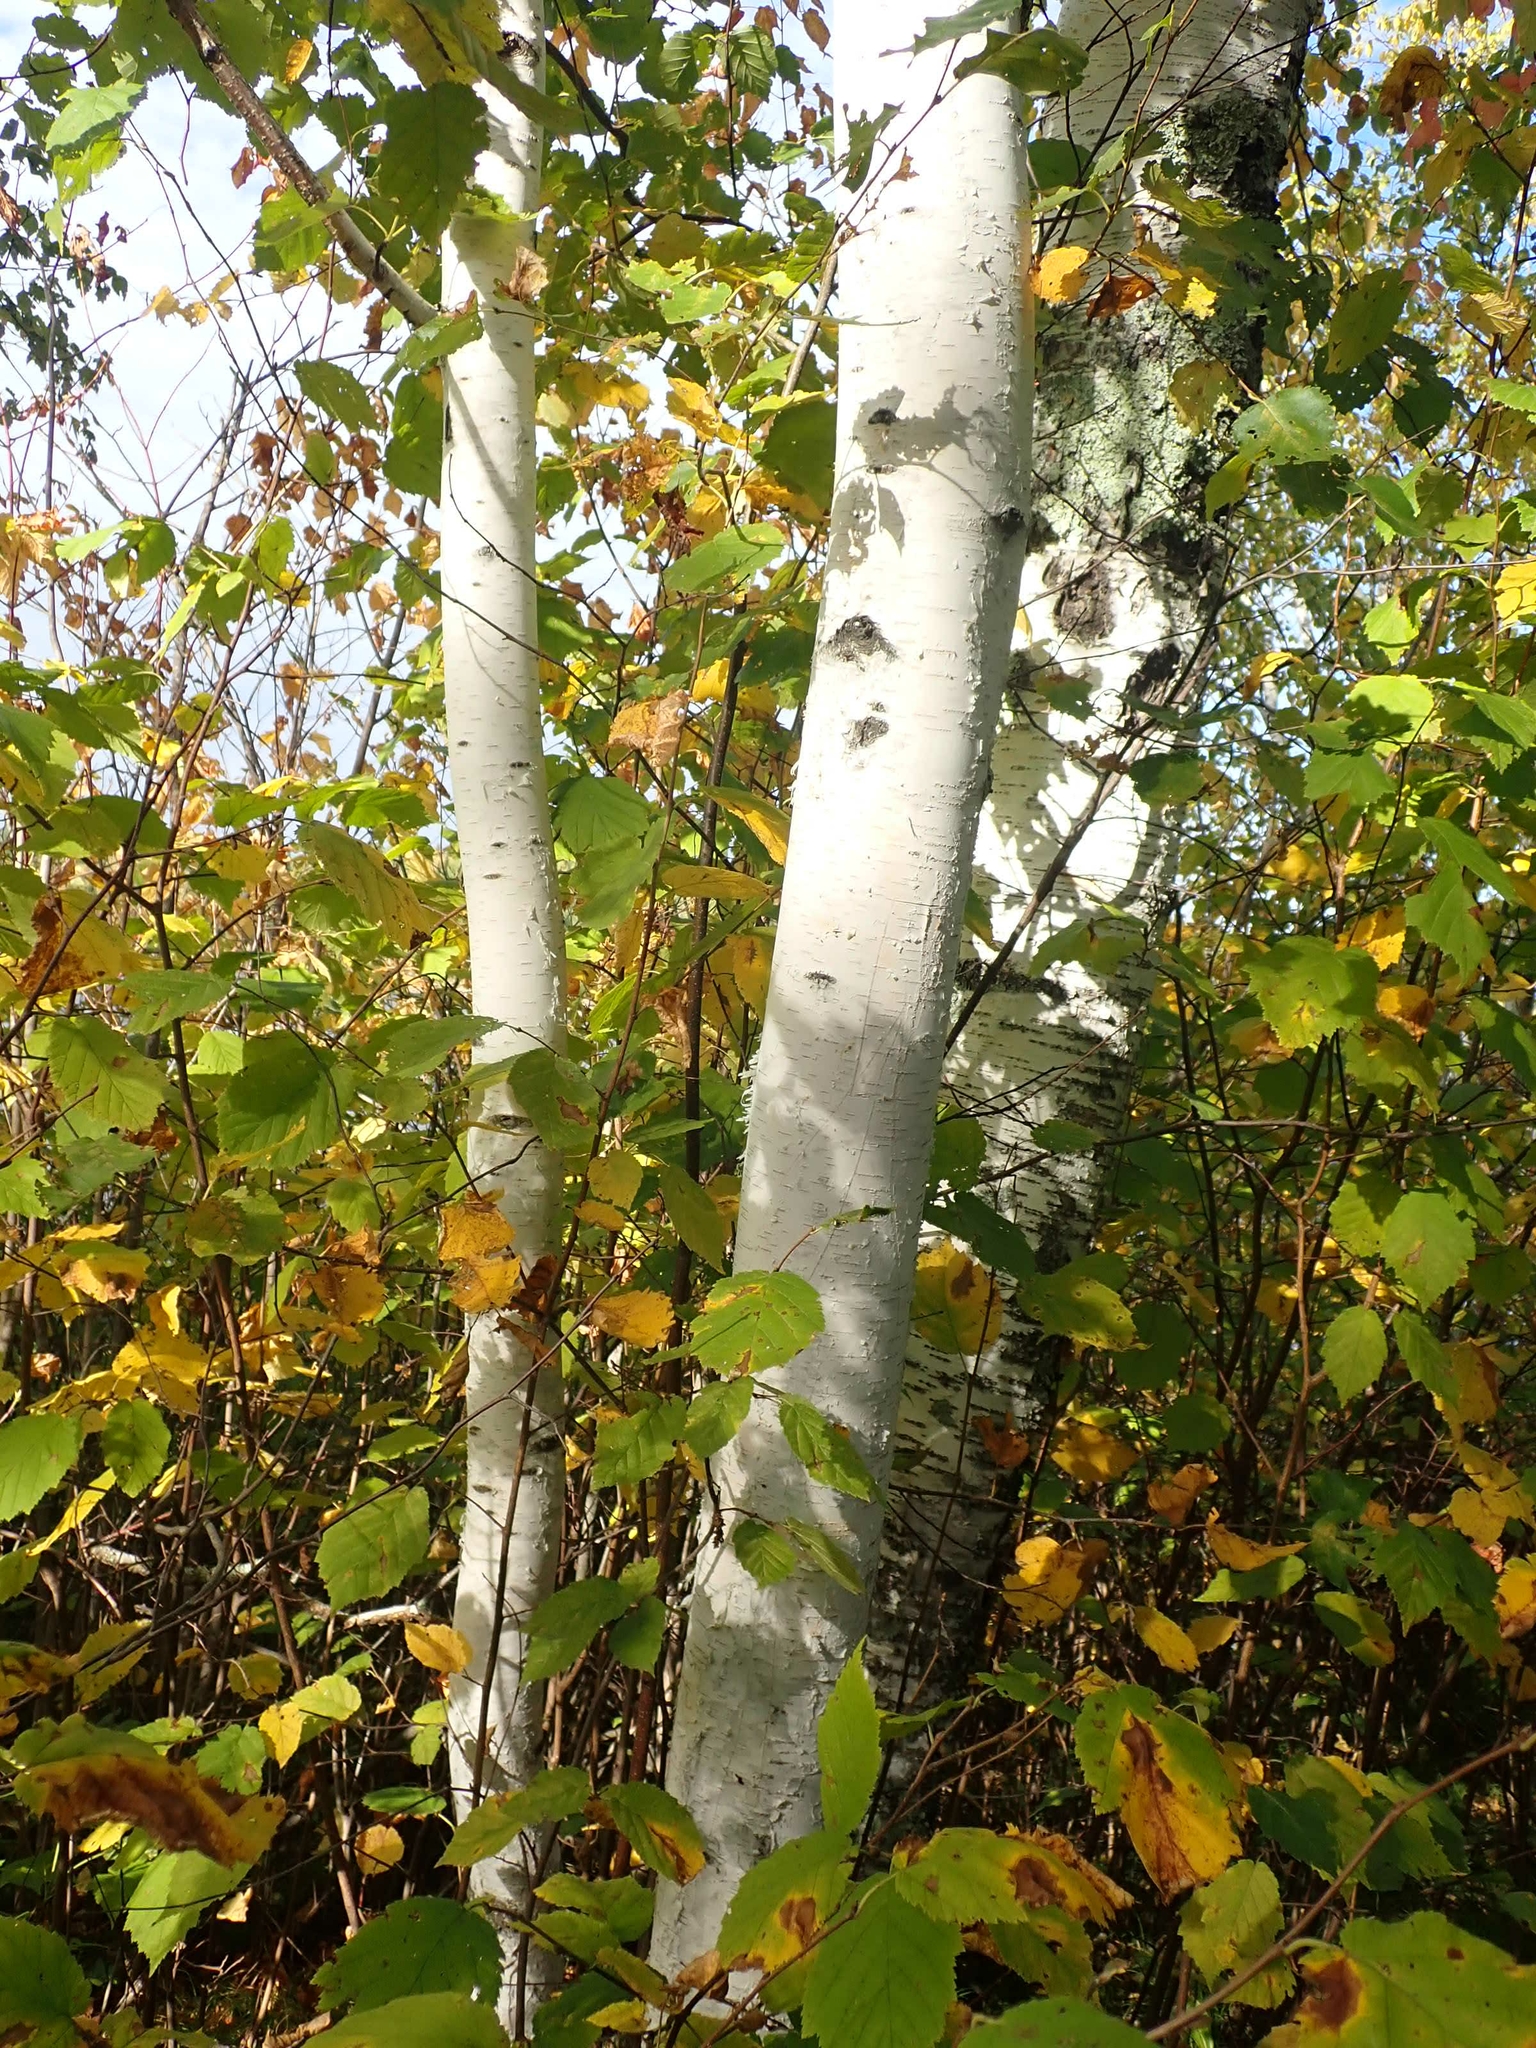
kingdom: Plantae
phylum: Tracheophyta
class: Magnoliopsida
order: Fagales
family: Betulaceae
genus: Betula
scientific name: Betula papyrifera
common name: Paper birch
